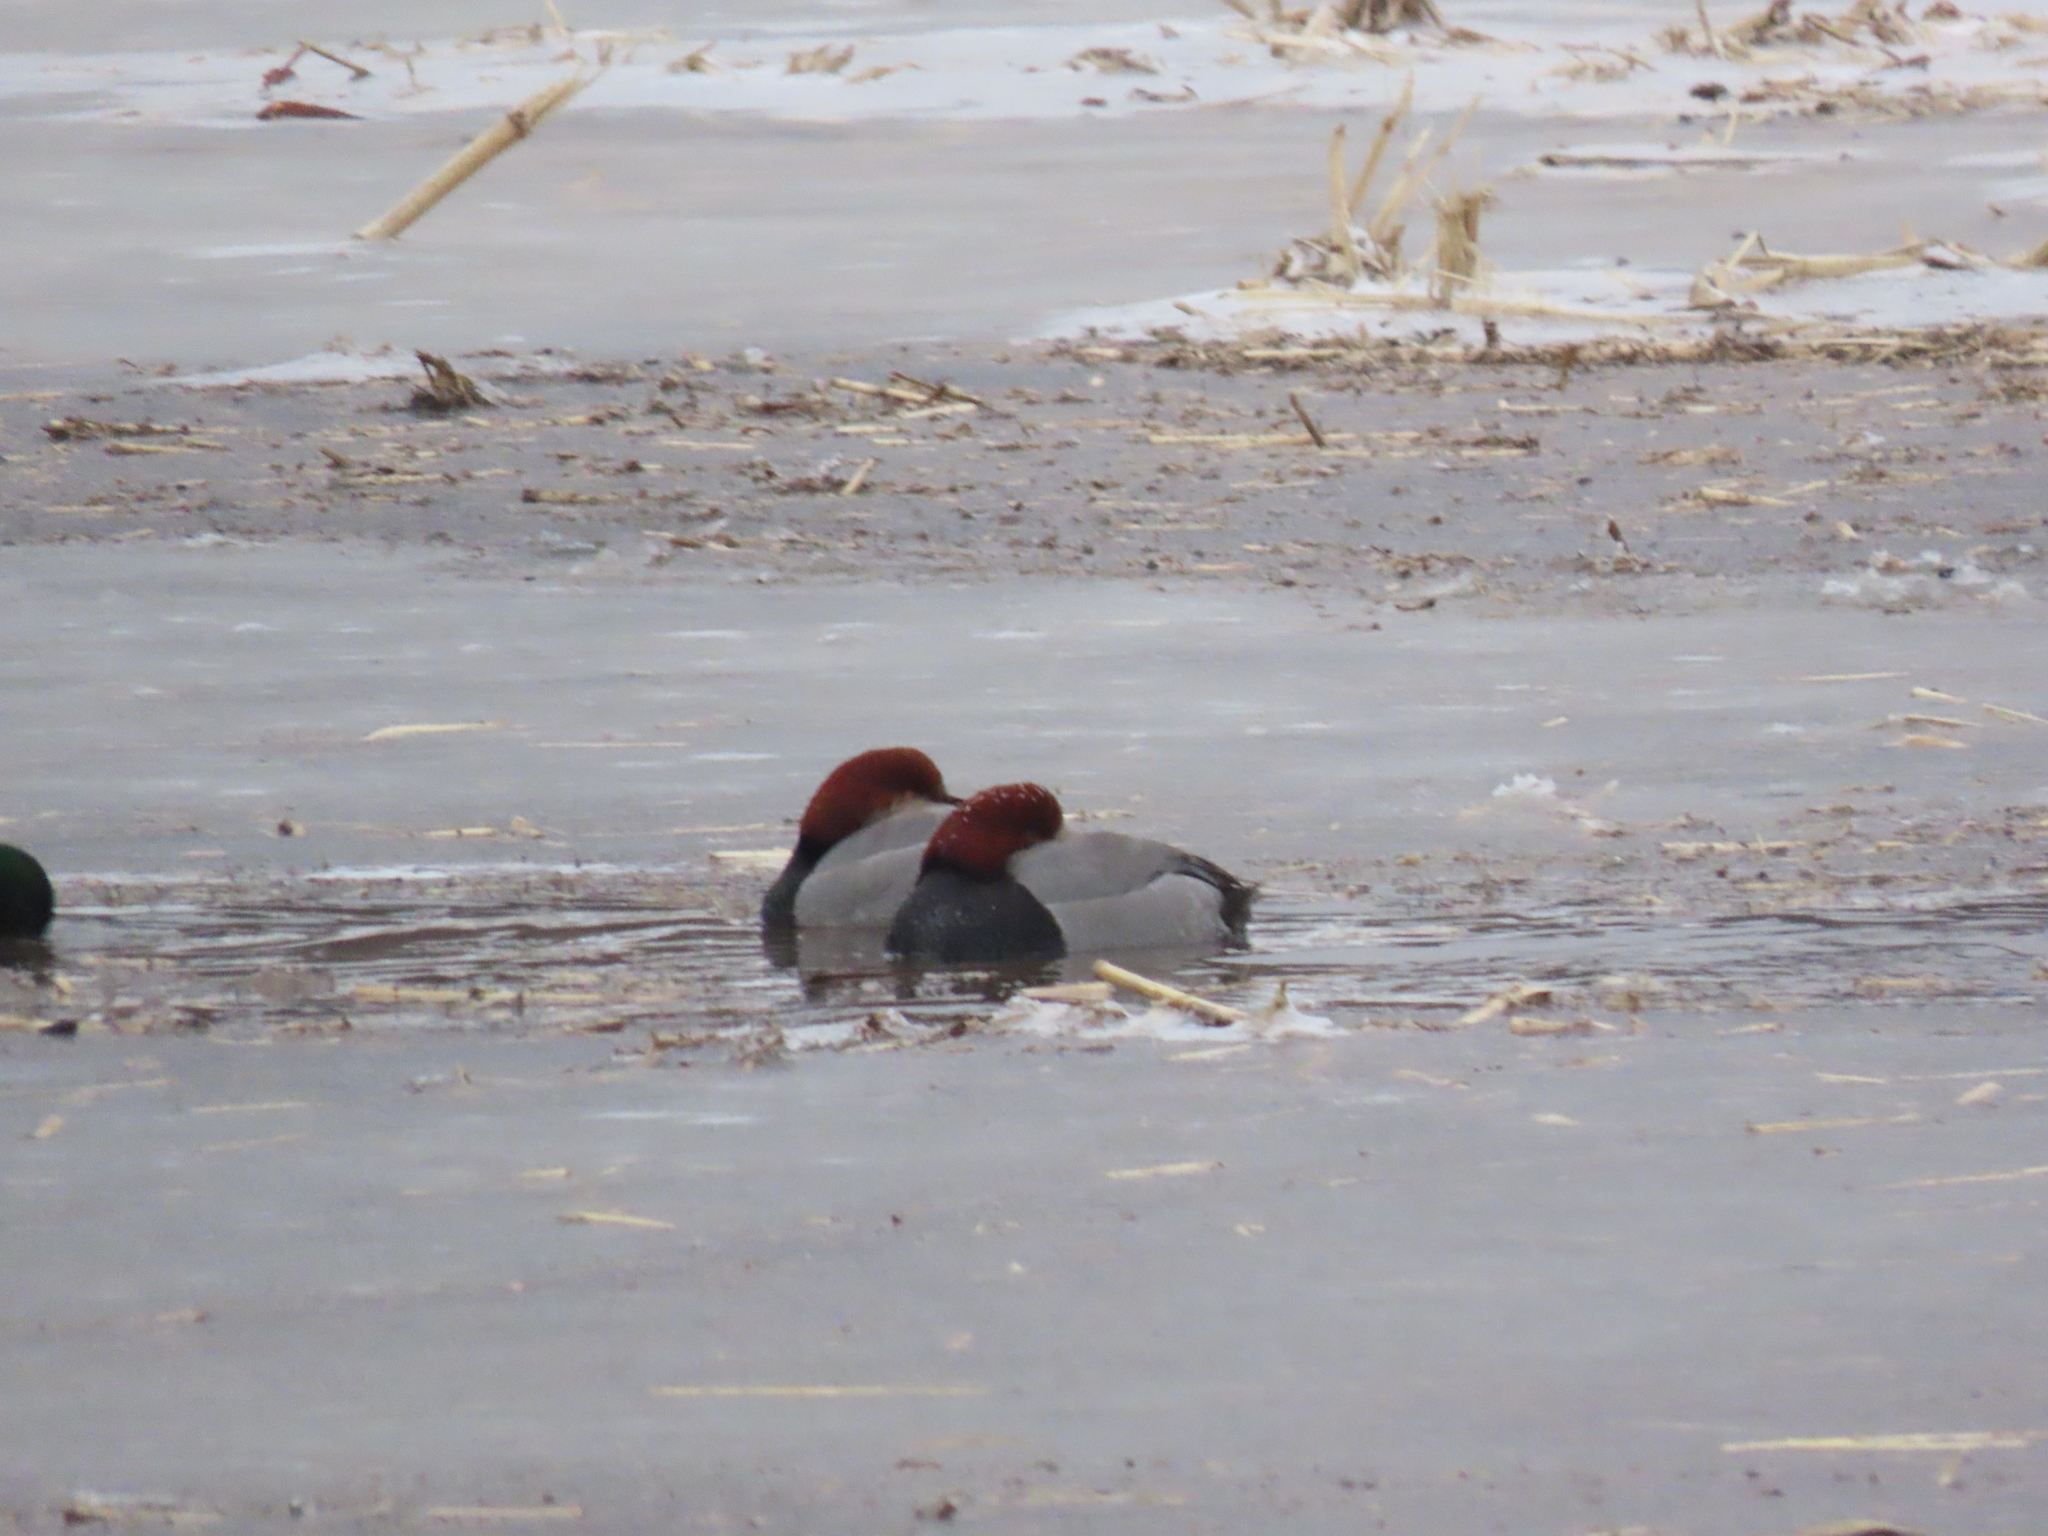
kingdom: Animalia
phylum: Chordata
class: Aves
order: Anseriformes
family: Anatidae
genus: Aythya
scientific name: Aythya americana
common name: Redhead
